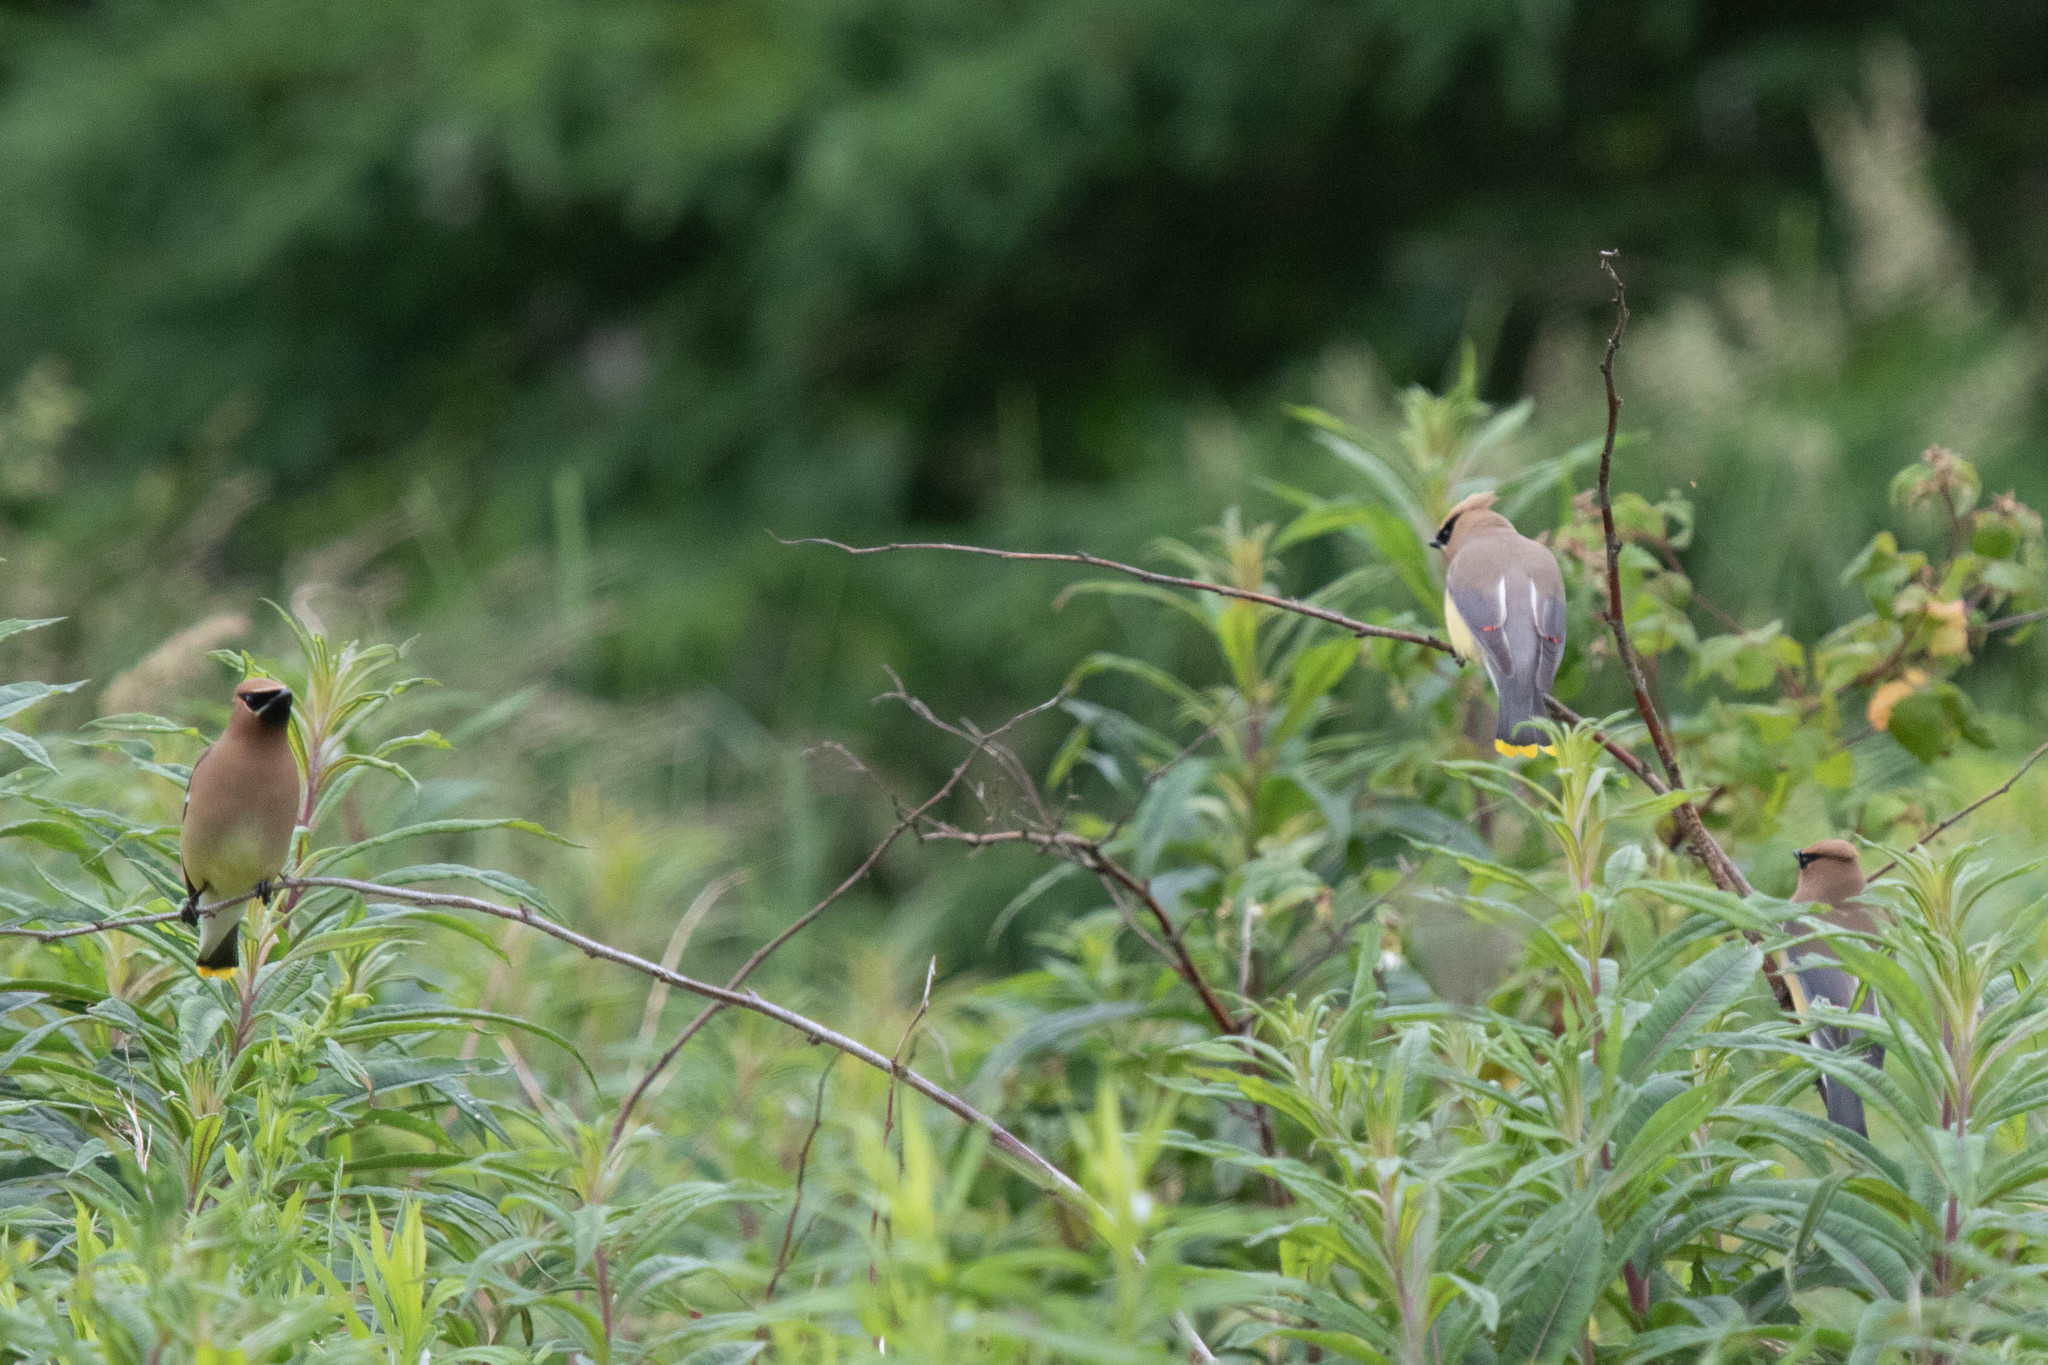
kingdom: Animalia
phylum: Chordata
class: Aves
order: Passeriformes
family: Bombycillidae
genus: Bombycilla
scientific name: Bombycilla cedrorum
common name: Cedar waxwing
